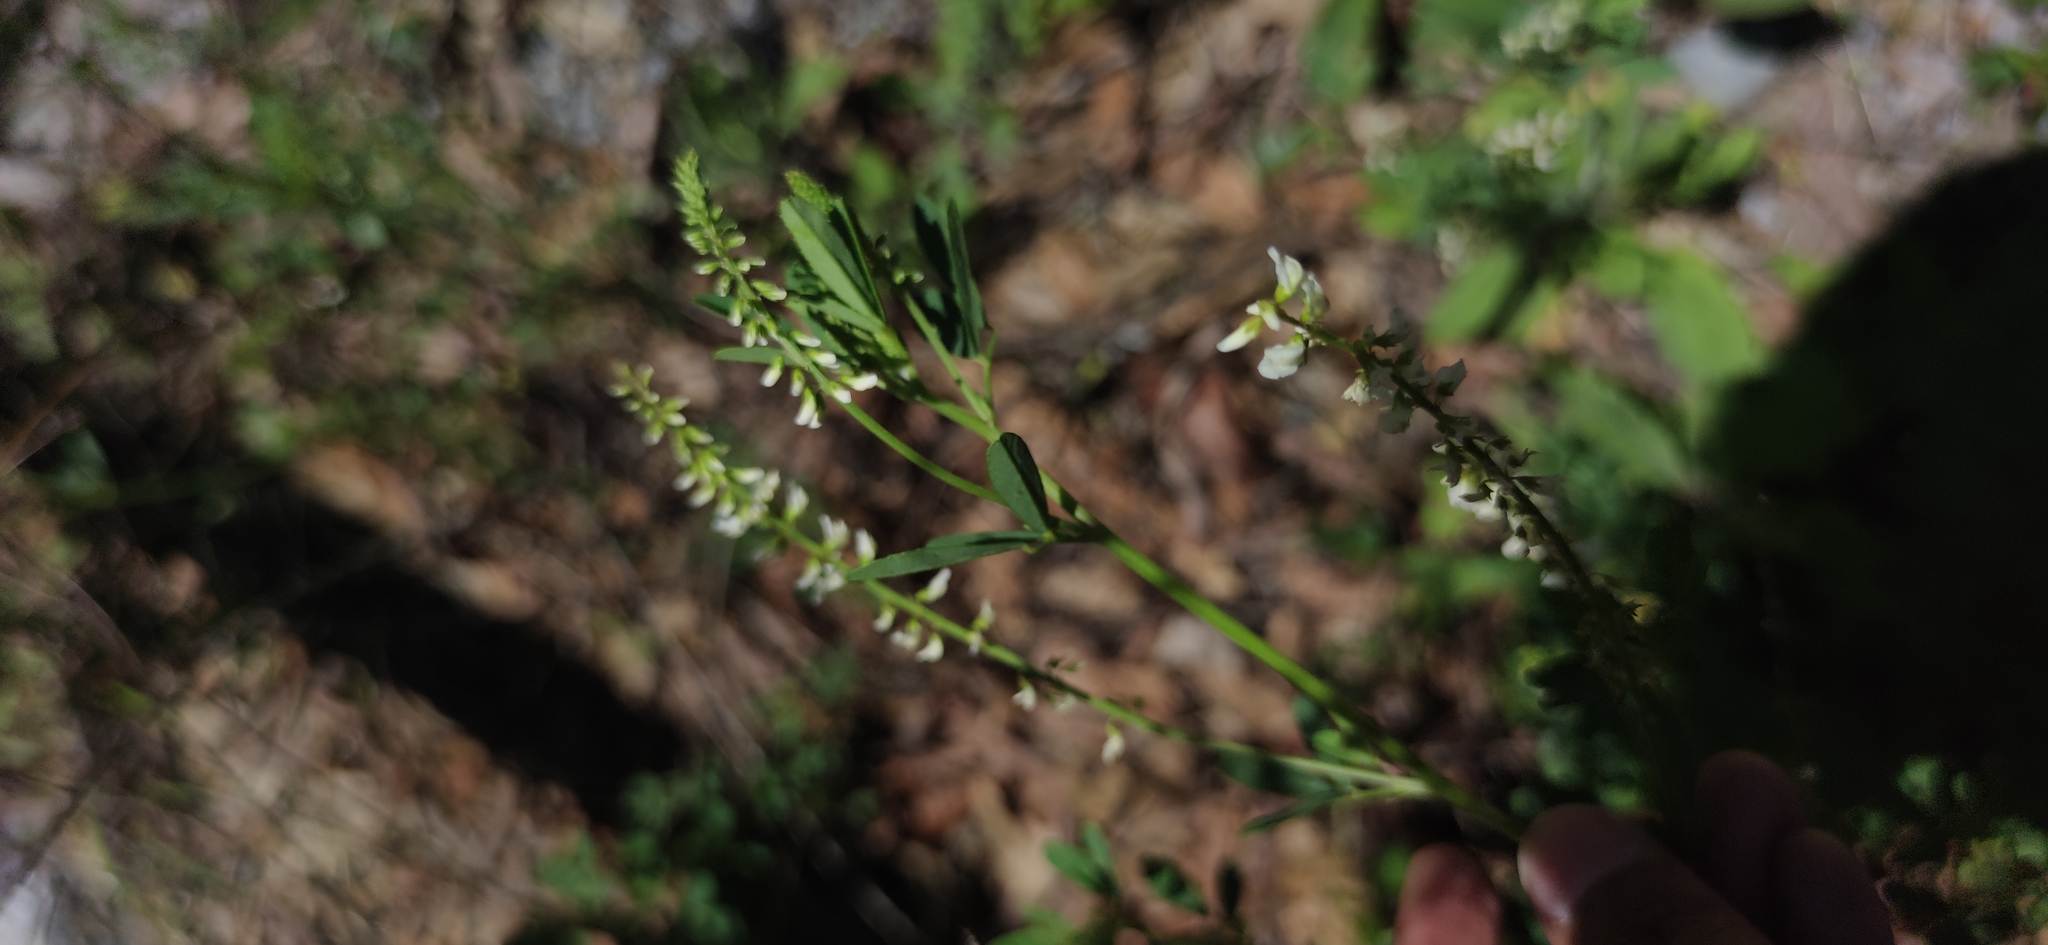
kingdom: Plantae
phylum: Tracheophyta
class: Magnoliopsida
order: Fabales
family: Fabaceae
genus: Melilotus
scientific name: Melilotus albus
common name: White melilot
